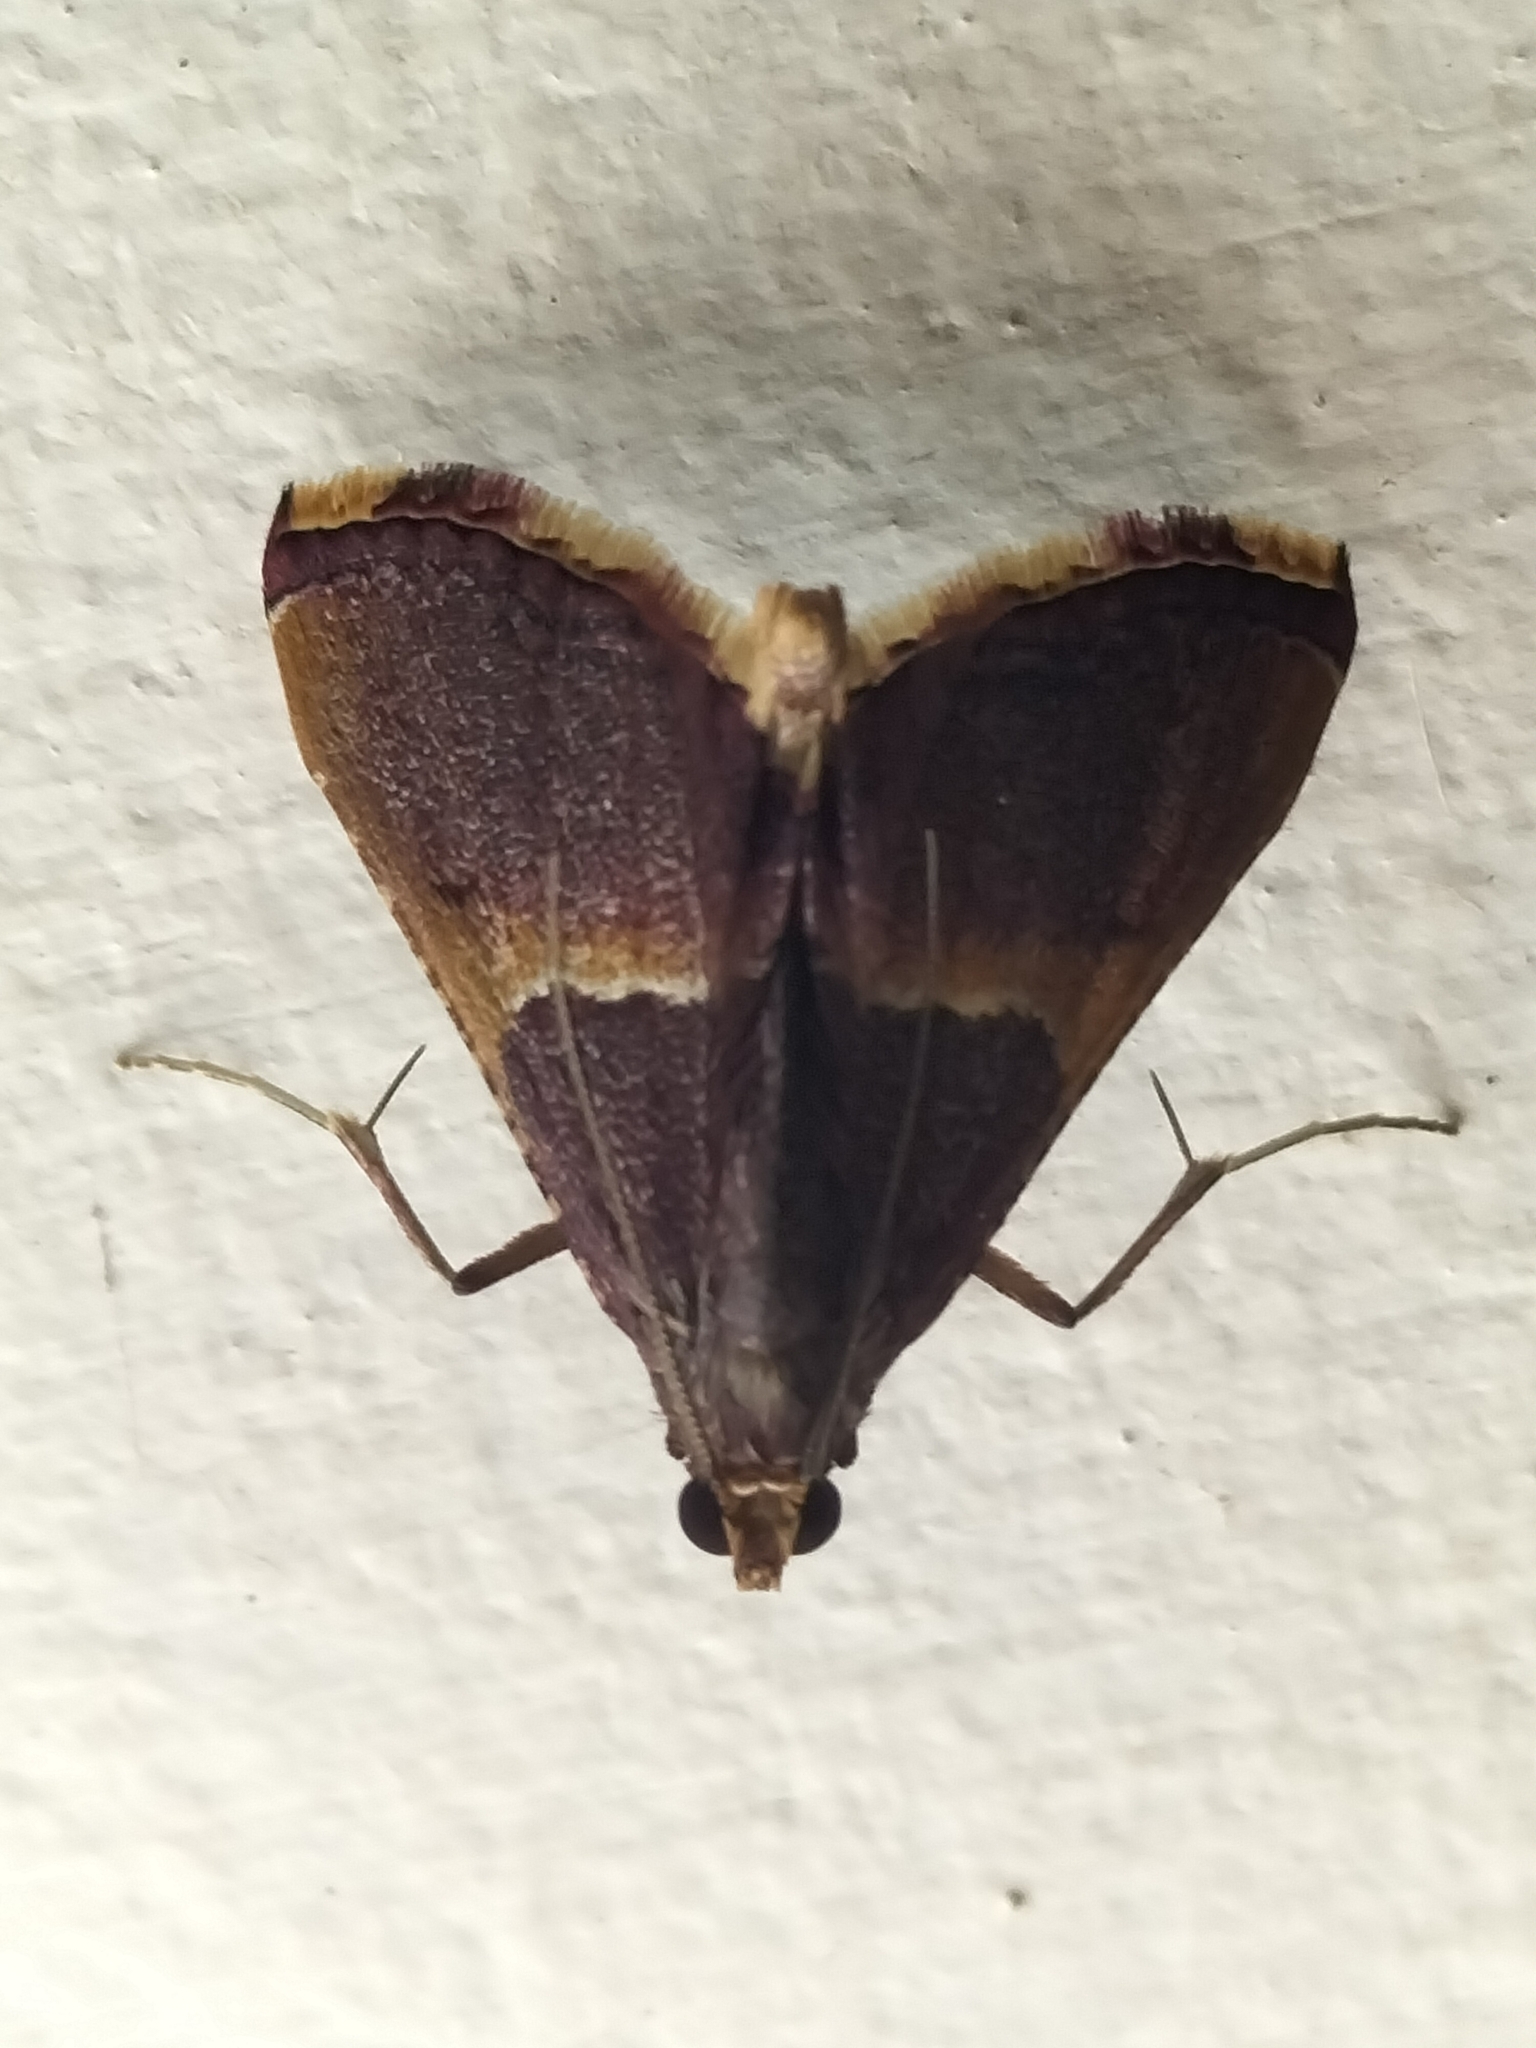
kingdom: Animalia
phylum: Arthropoda
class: Insecta
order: Lepidoptera
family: Pyralidae
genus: Endotricha
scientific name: Endotricha mesenterialis
